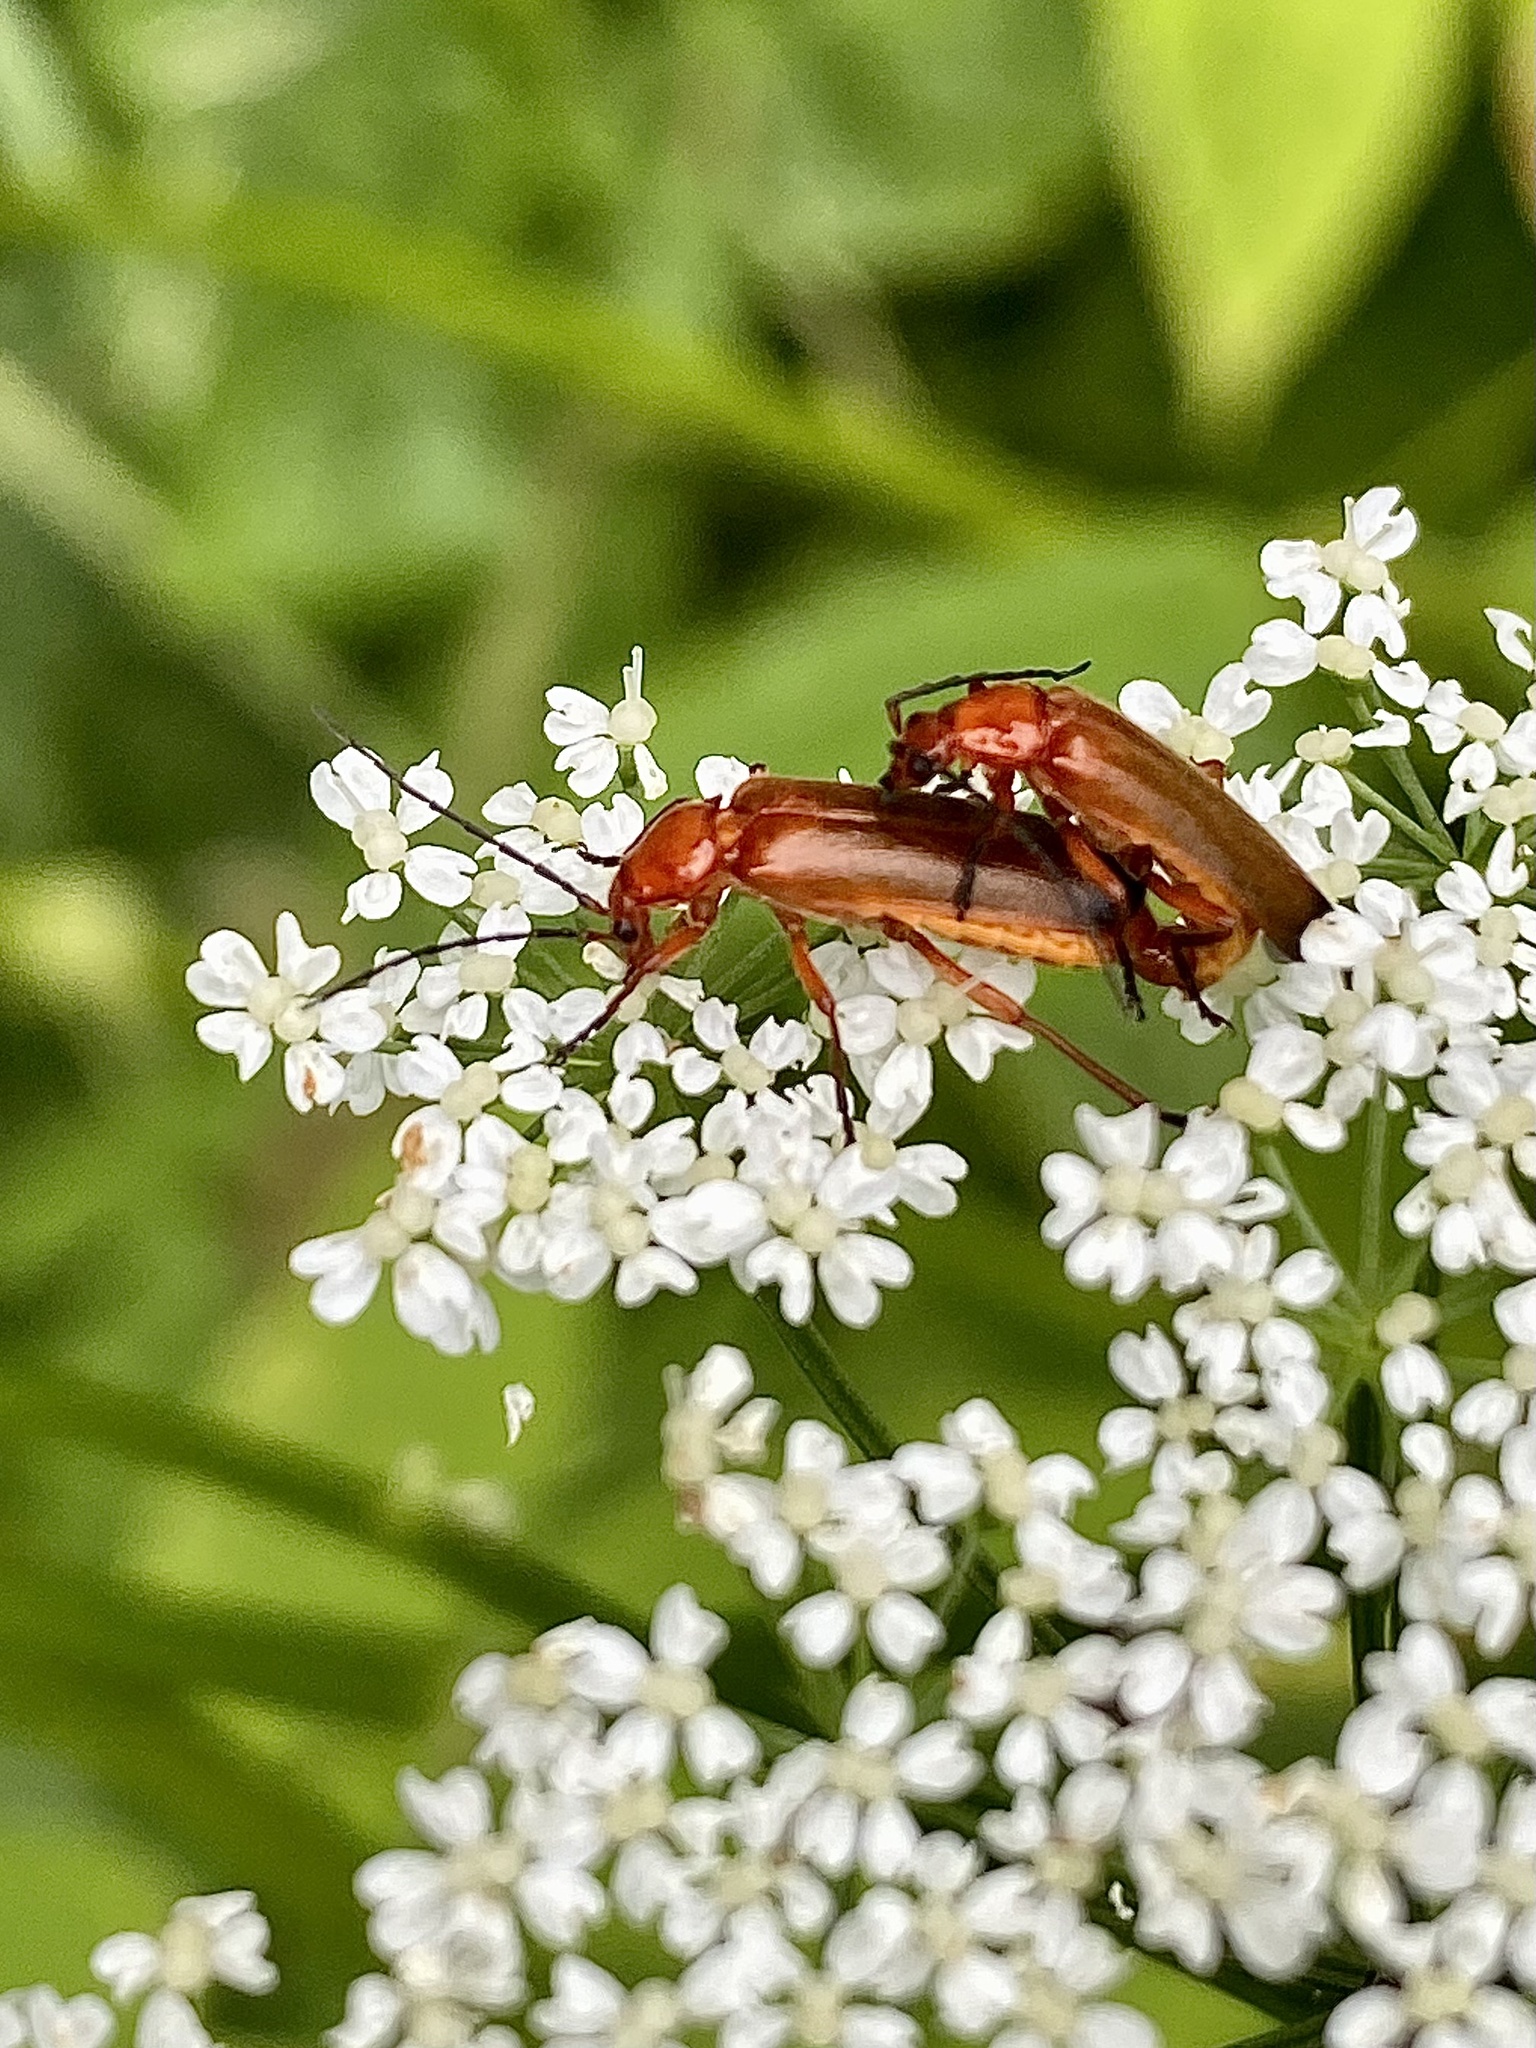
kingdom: Animalia
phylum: Arthropoda
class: Insecta
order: Coleoptera
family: Cantharidae
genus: Rhagonycha
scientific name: Rhagonycha fulva
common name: Common red soldier beetle
